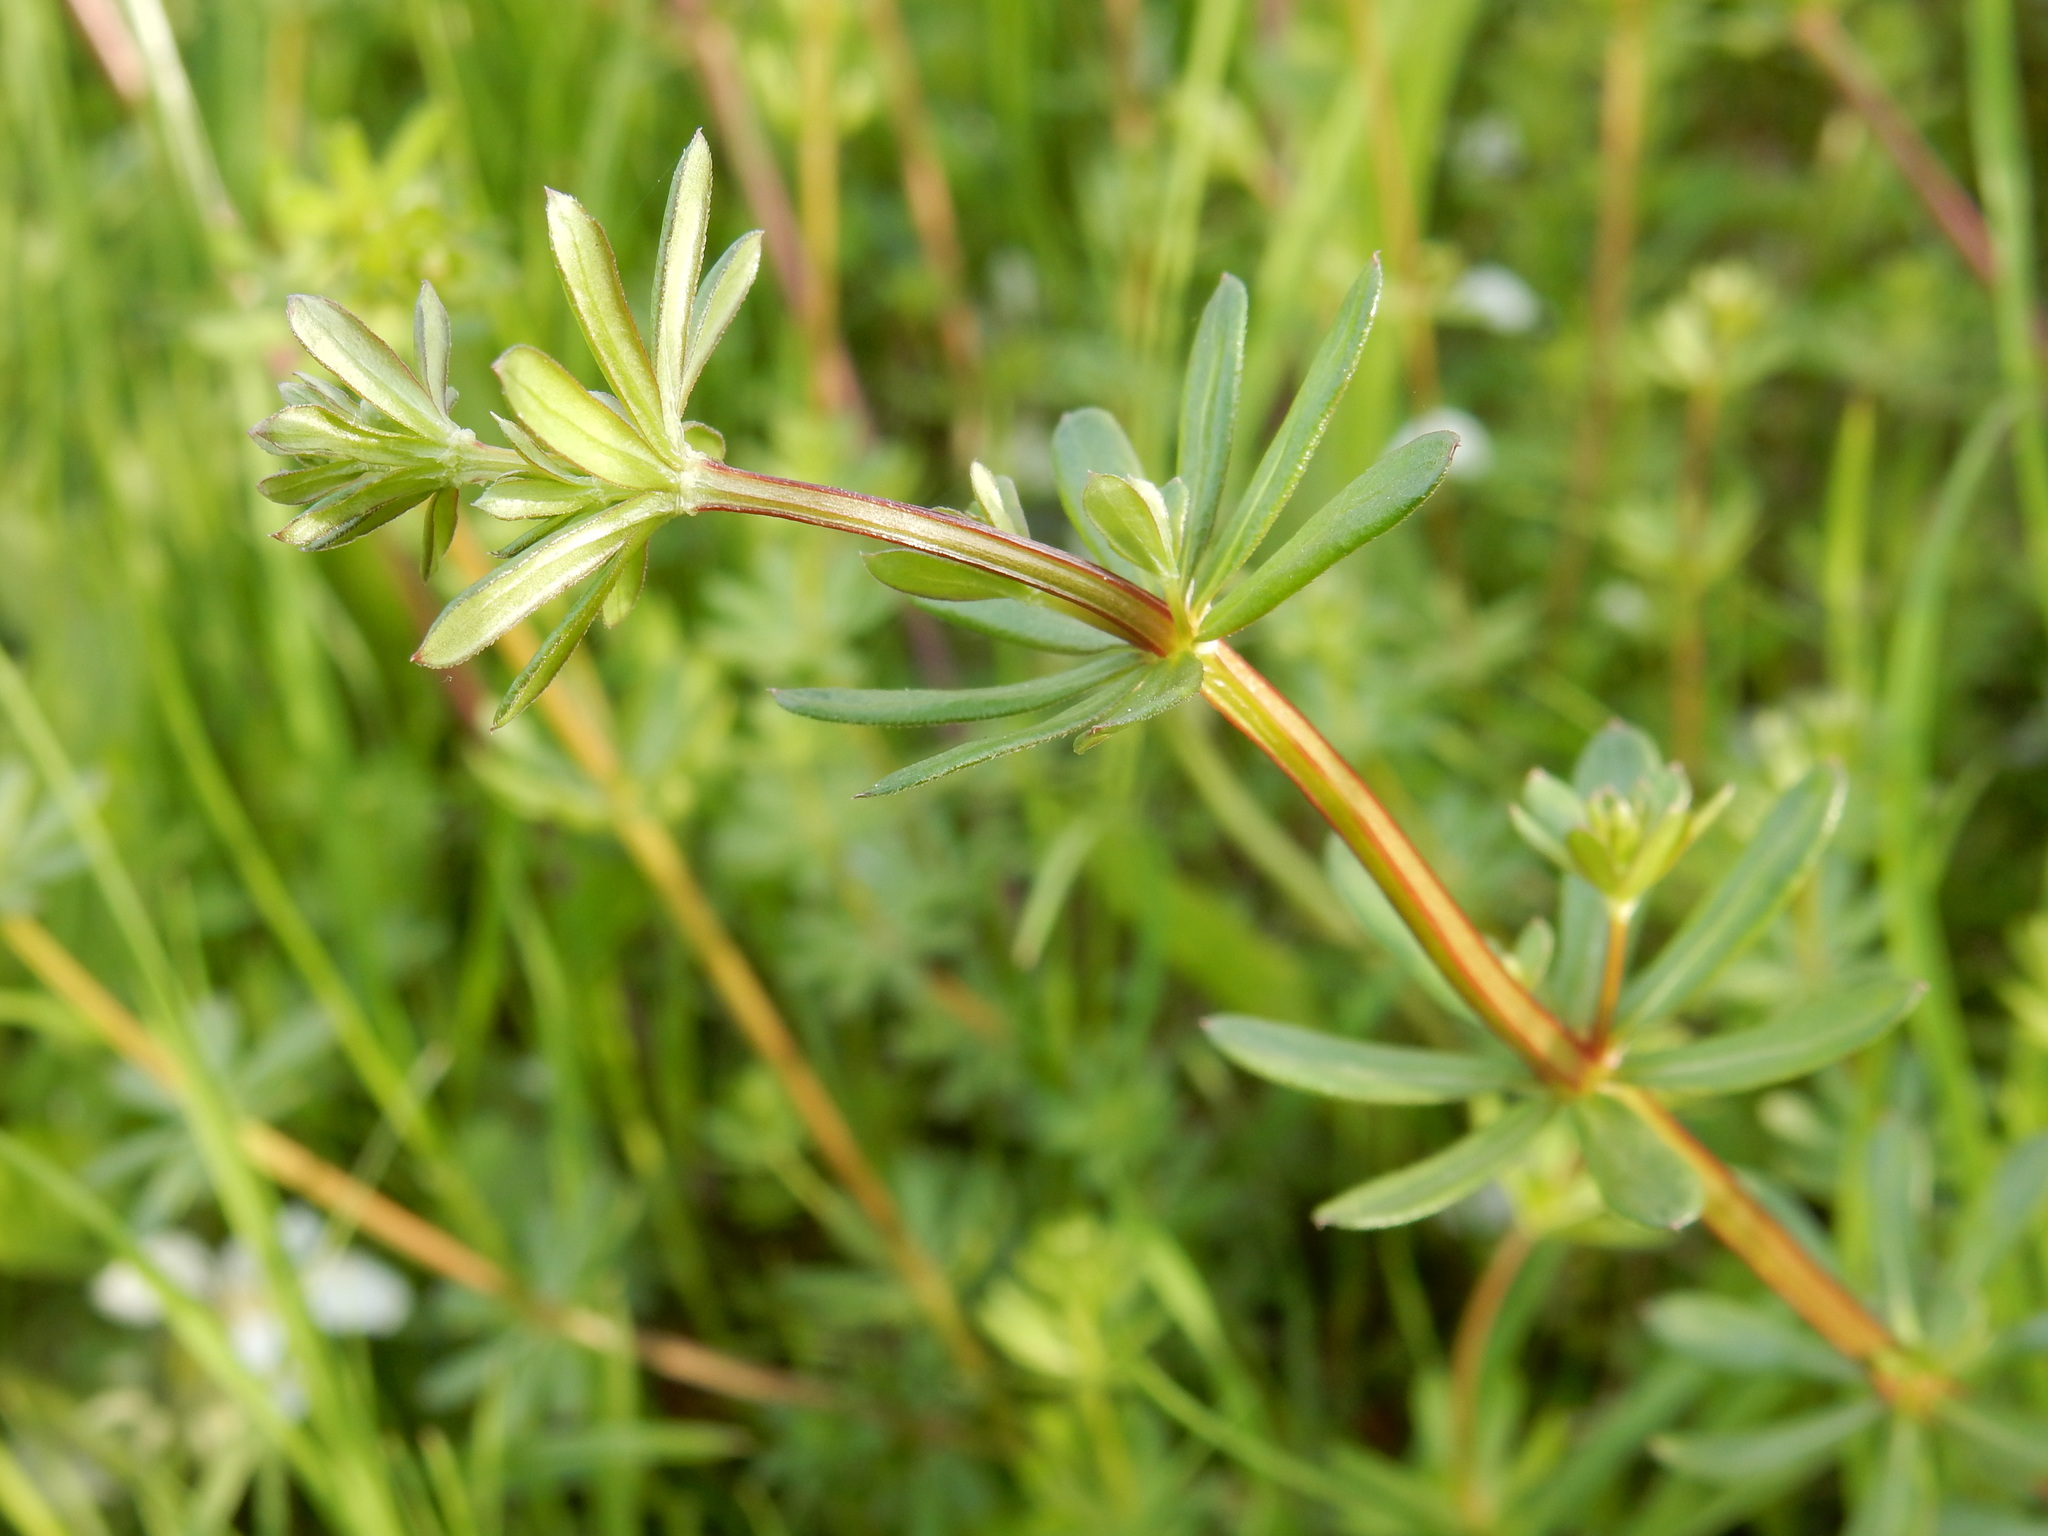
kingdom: Plantae
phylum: Tracheophyta
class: Magnoliopsida
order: Gentianales
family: Rubiaceae
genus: Galium
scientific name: Galium album
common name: White bedstraw
